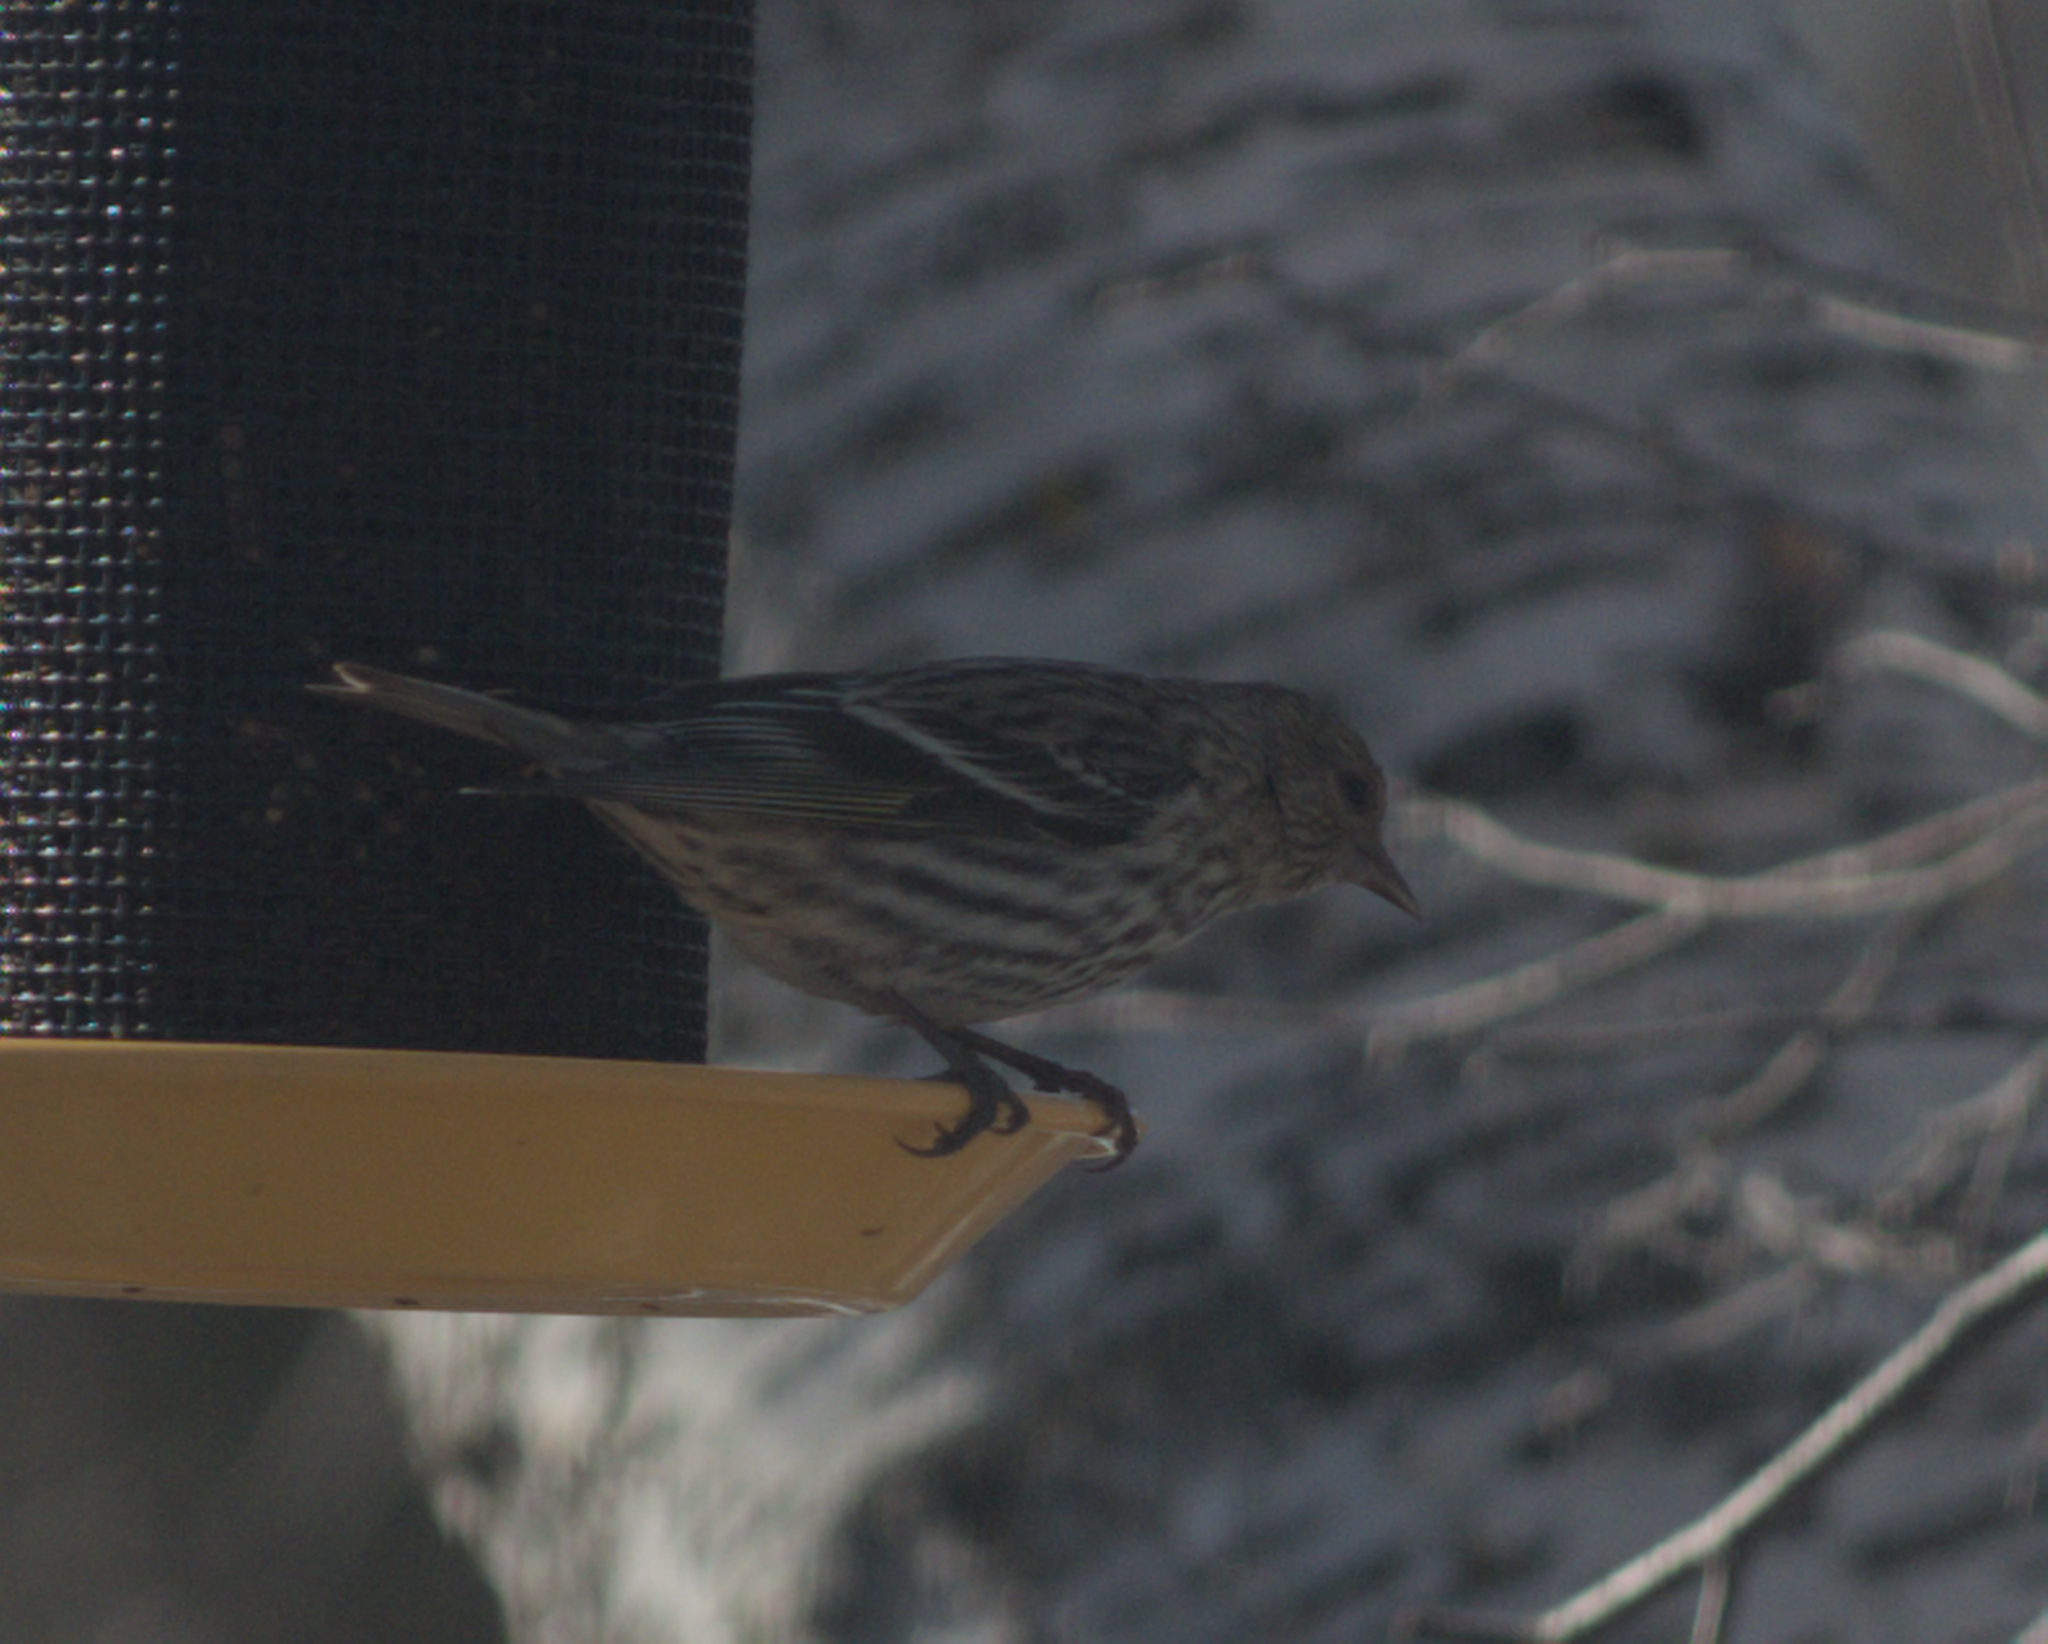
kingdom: Animalia
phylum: Chordata
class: Aves
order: Passeriformes
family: Fringillidae
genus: Spinus
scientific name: Spinus pinus
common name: Pine siskin
